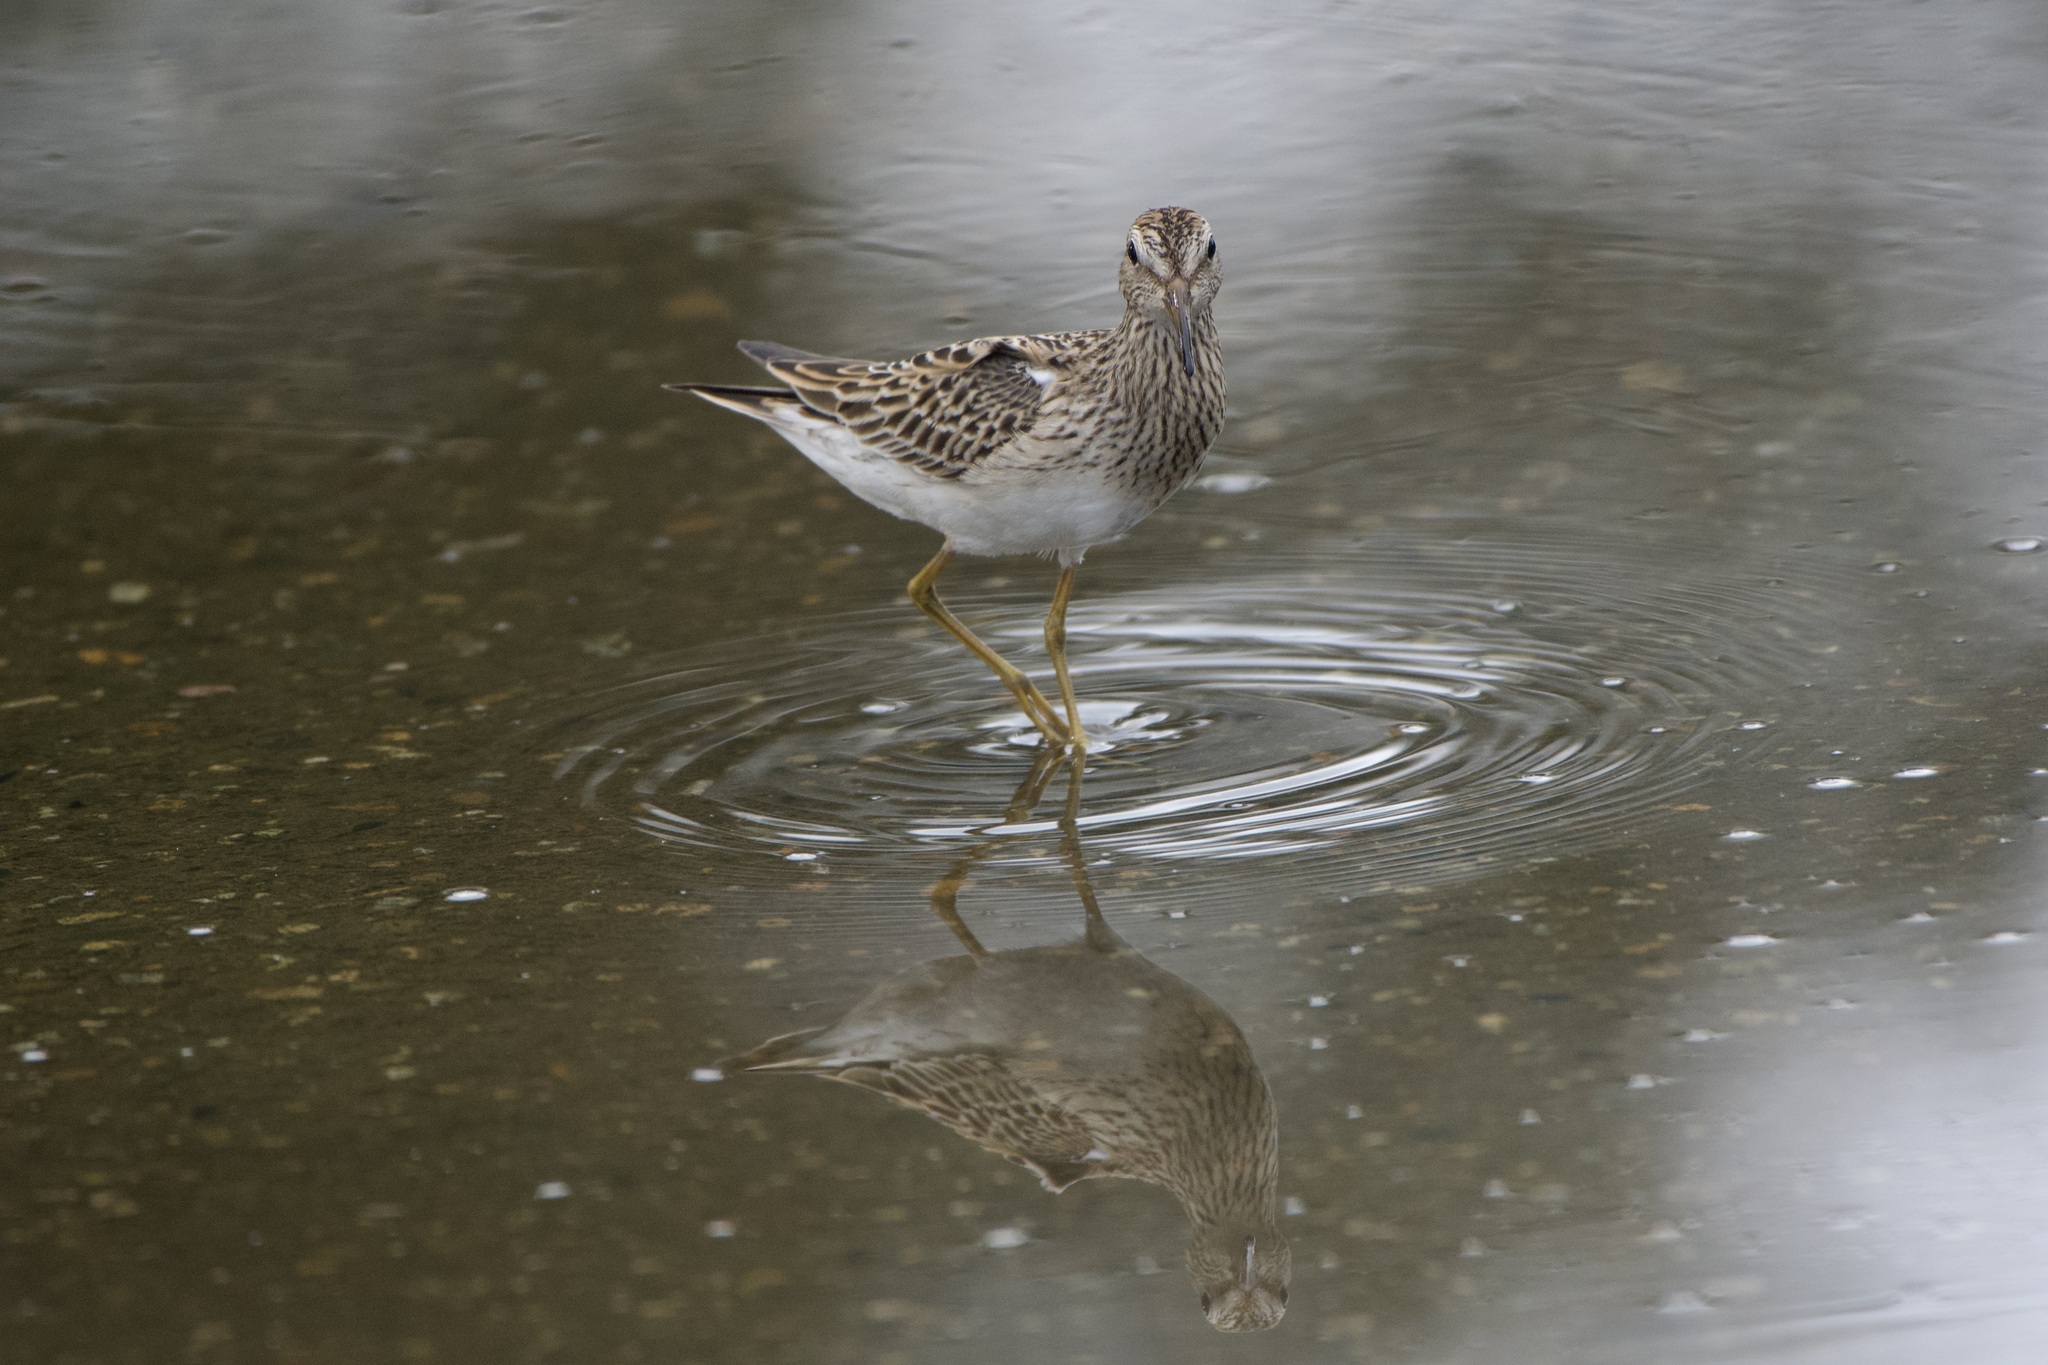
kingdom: Animalia
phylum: Chordata
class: Aves
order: Charadriiformes
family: Scolopacidae
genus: Calidris
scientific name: Calidris melanotos
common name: Pectoral sandpiper
